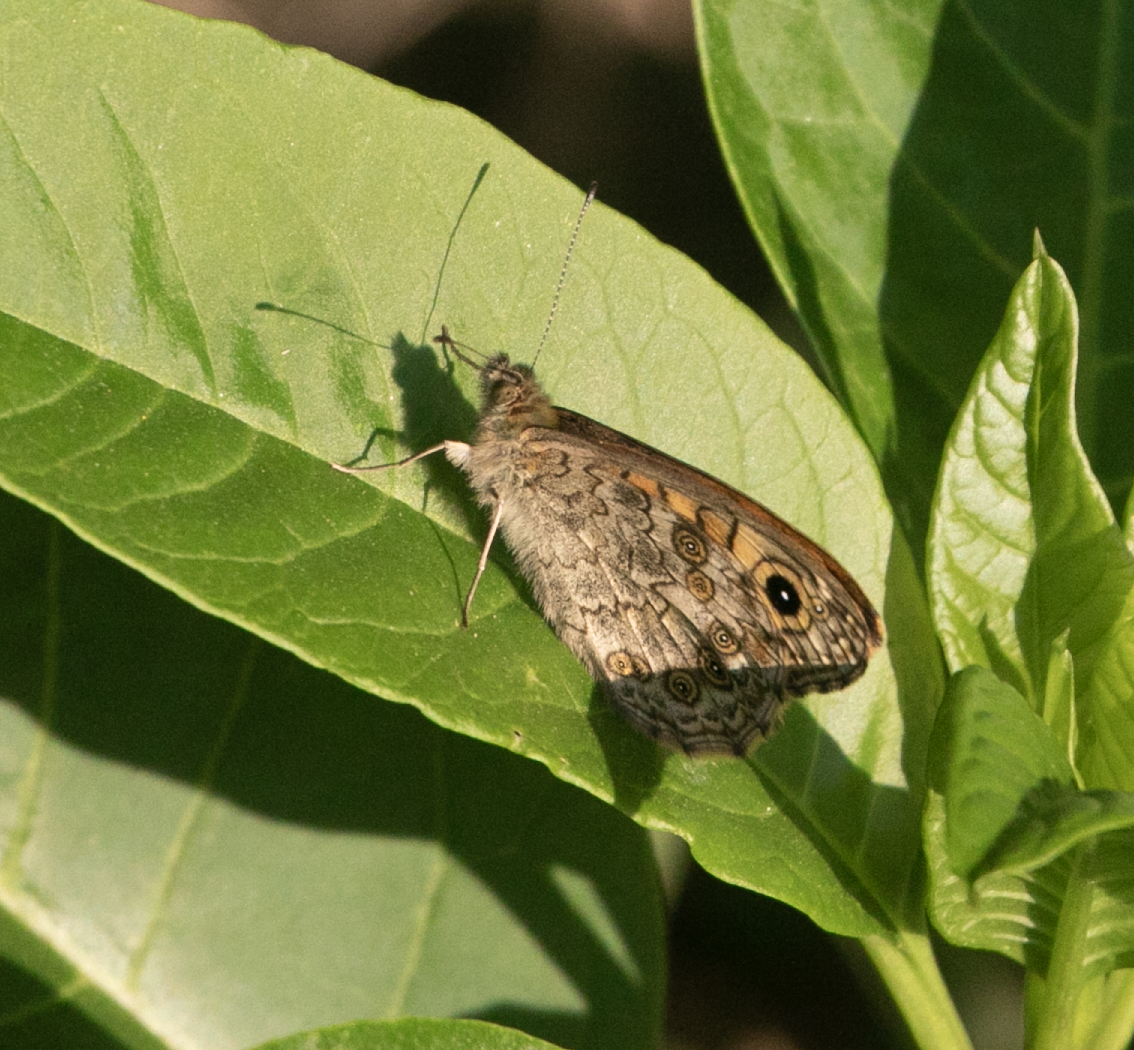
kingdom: Animalia
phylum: Arthropoda
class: Insecta
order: Lepidoptera
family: Nymphalidae
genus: Pararge
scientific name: Pararge Lasiommata megera
